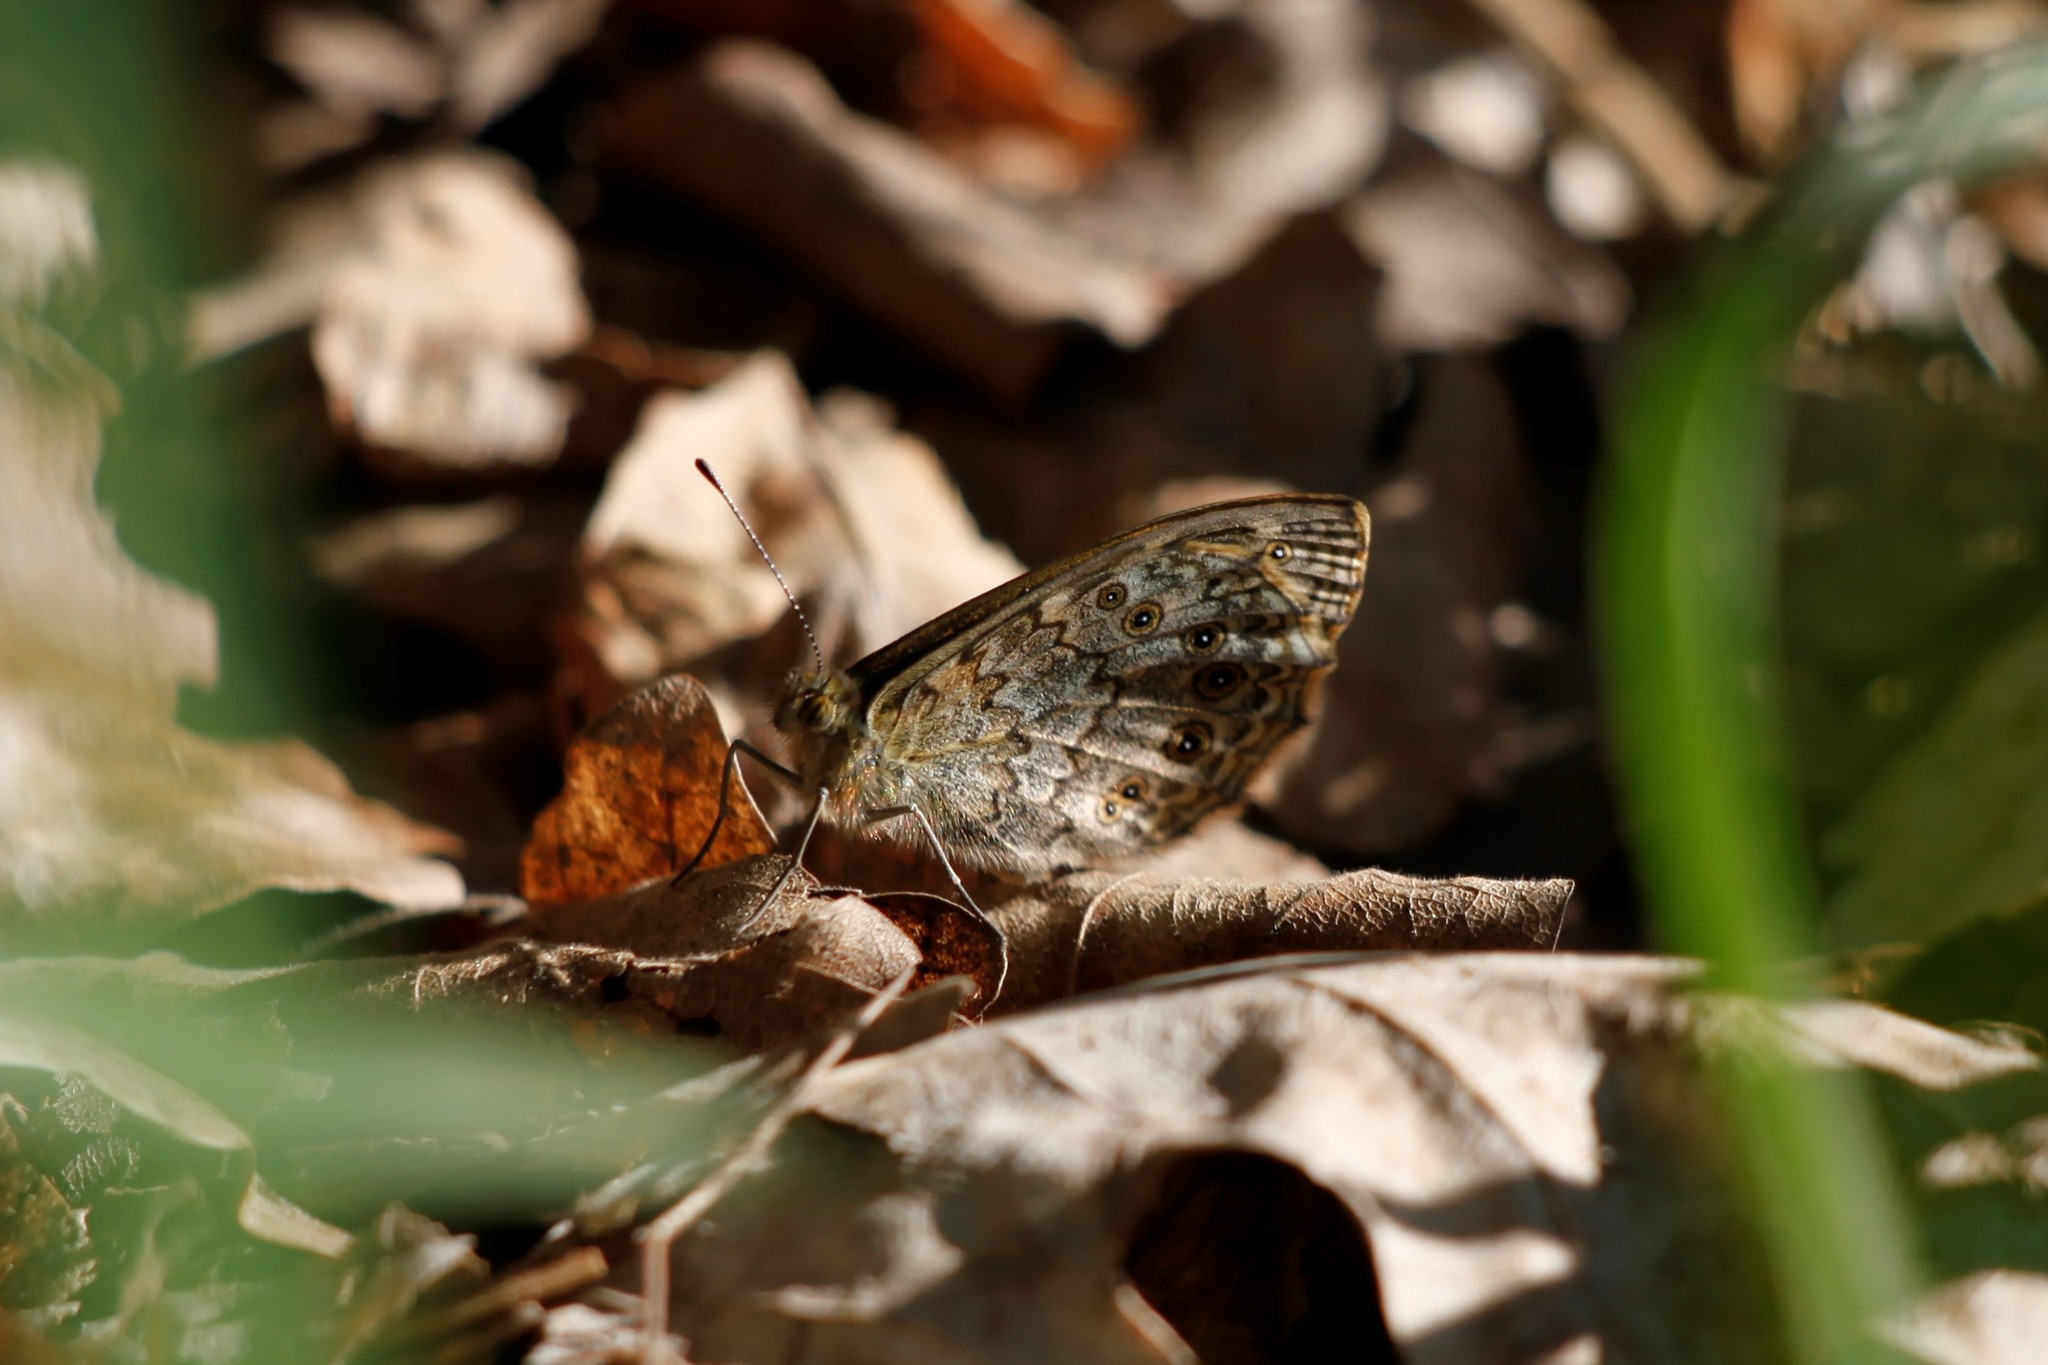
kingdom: Animalia
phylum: Arthropoda
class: Insecta
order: Lepidoptera
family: Nymphalidae
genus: Pararge
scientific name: Pararge Lasiommata megera
